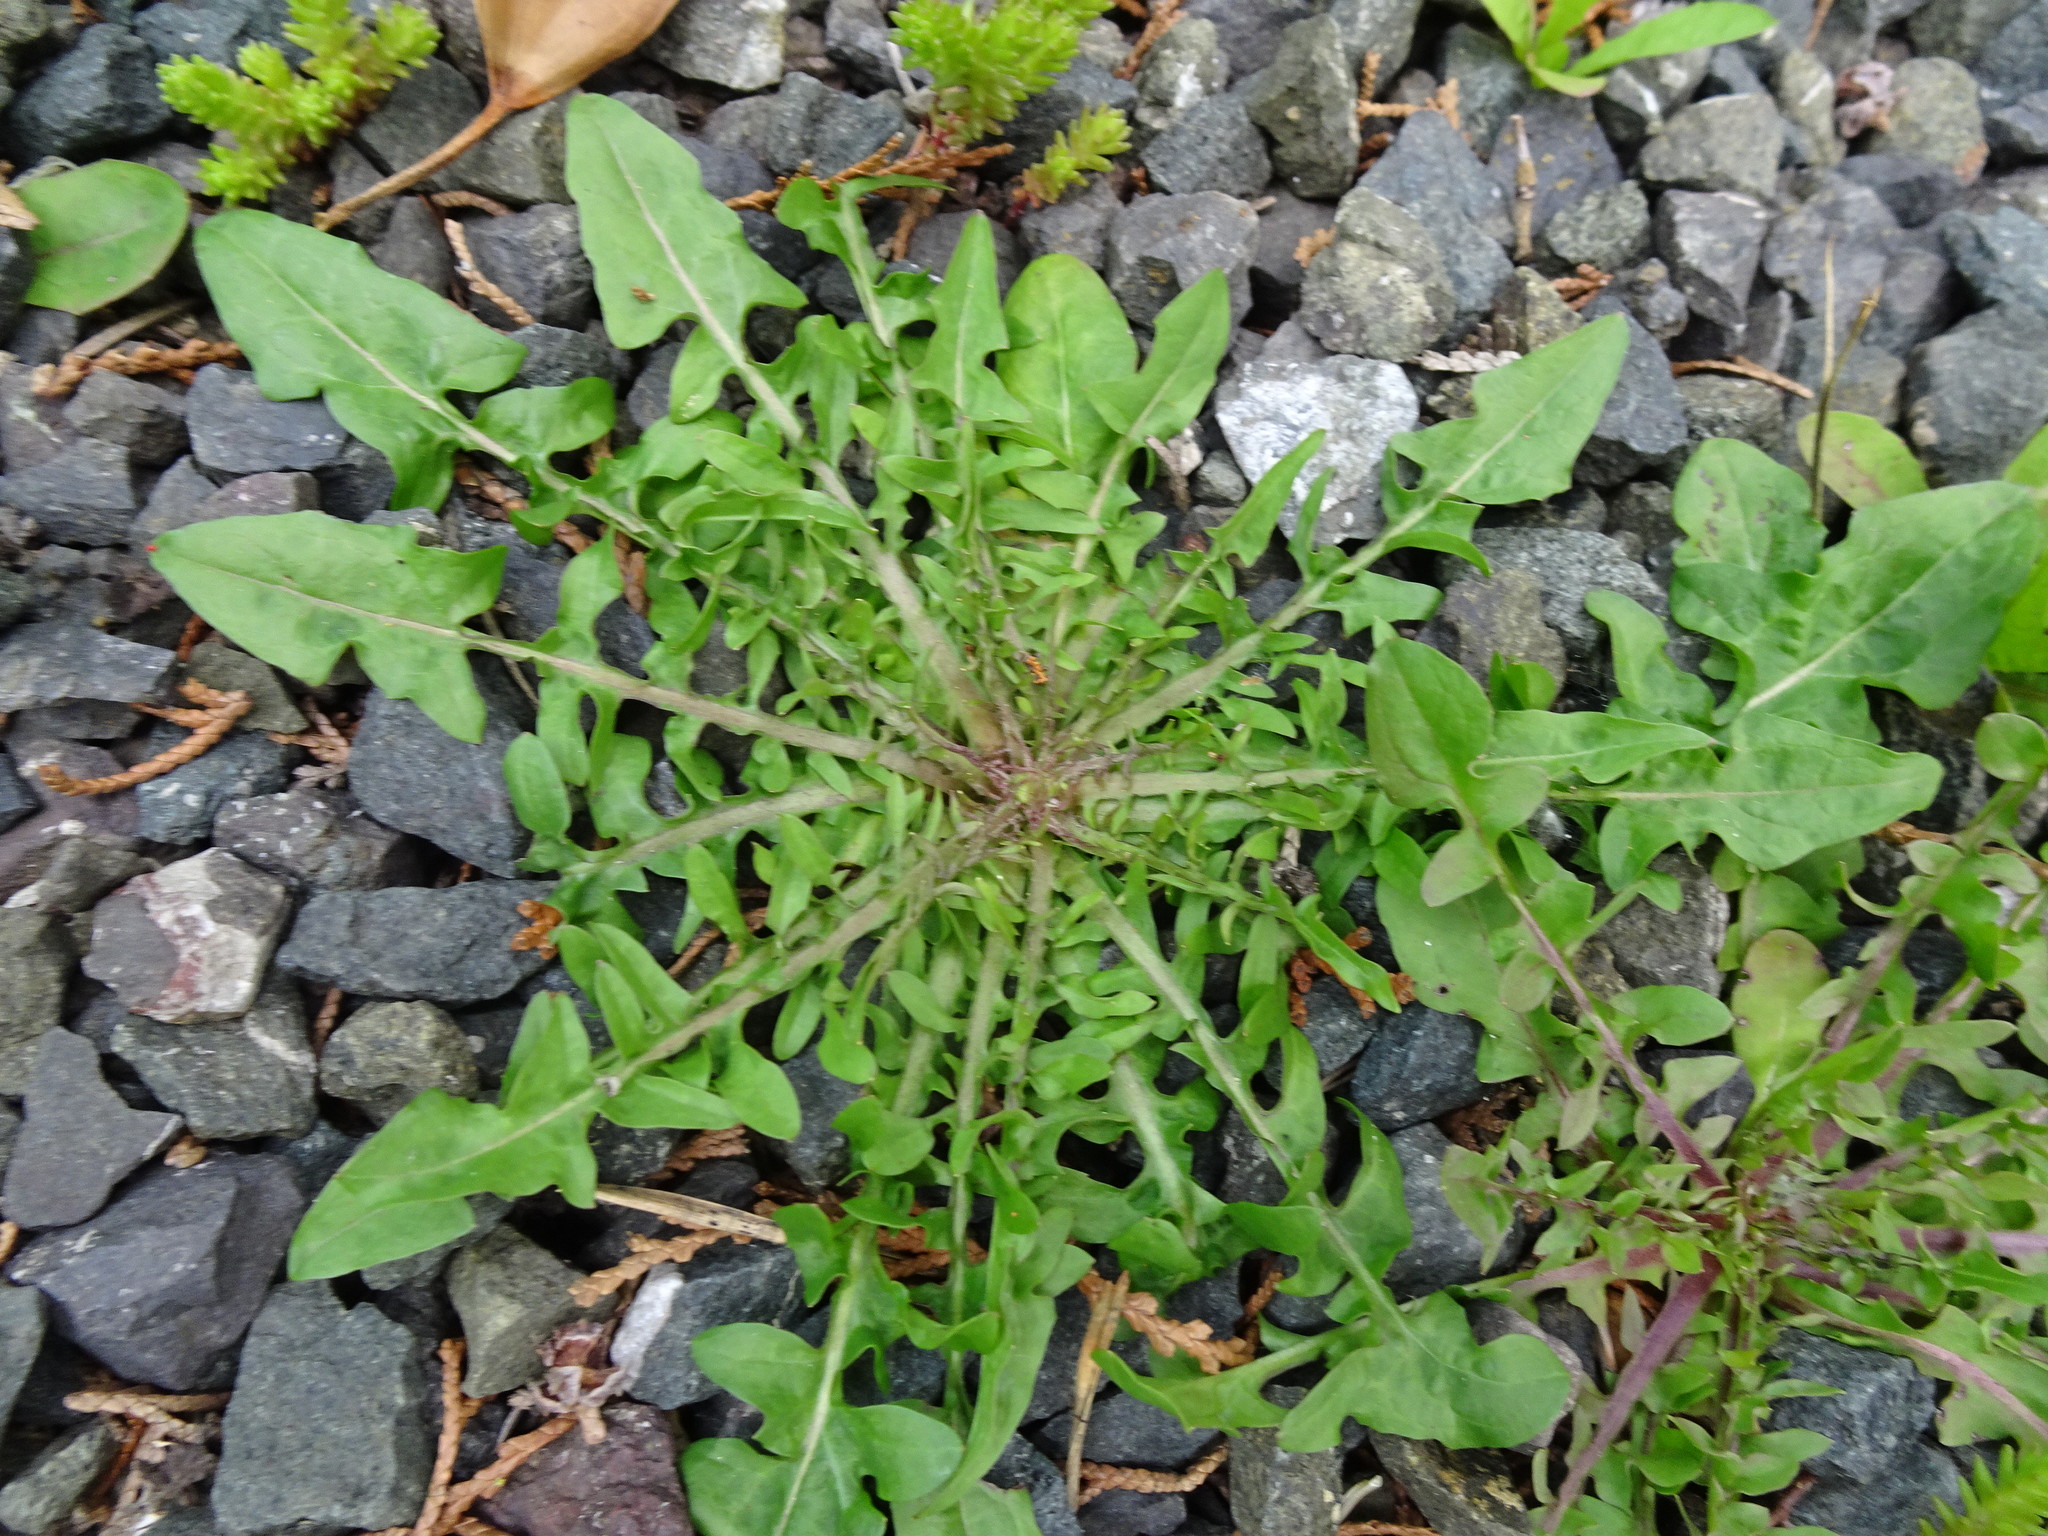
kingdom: Plantae
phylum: Tracheophyta
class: Magnoliopsida
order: Asterales
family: Asteraceae
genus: Crepis
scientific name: Crepis capillaris
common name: Smooth hawksbeard
